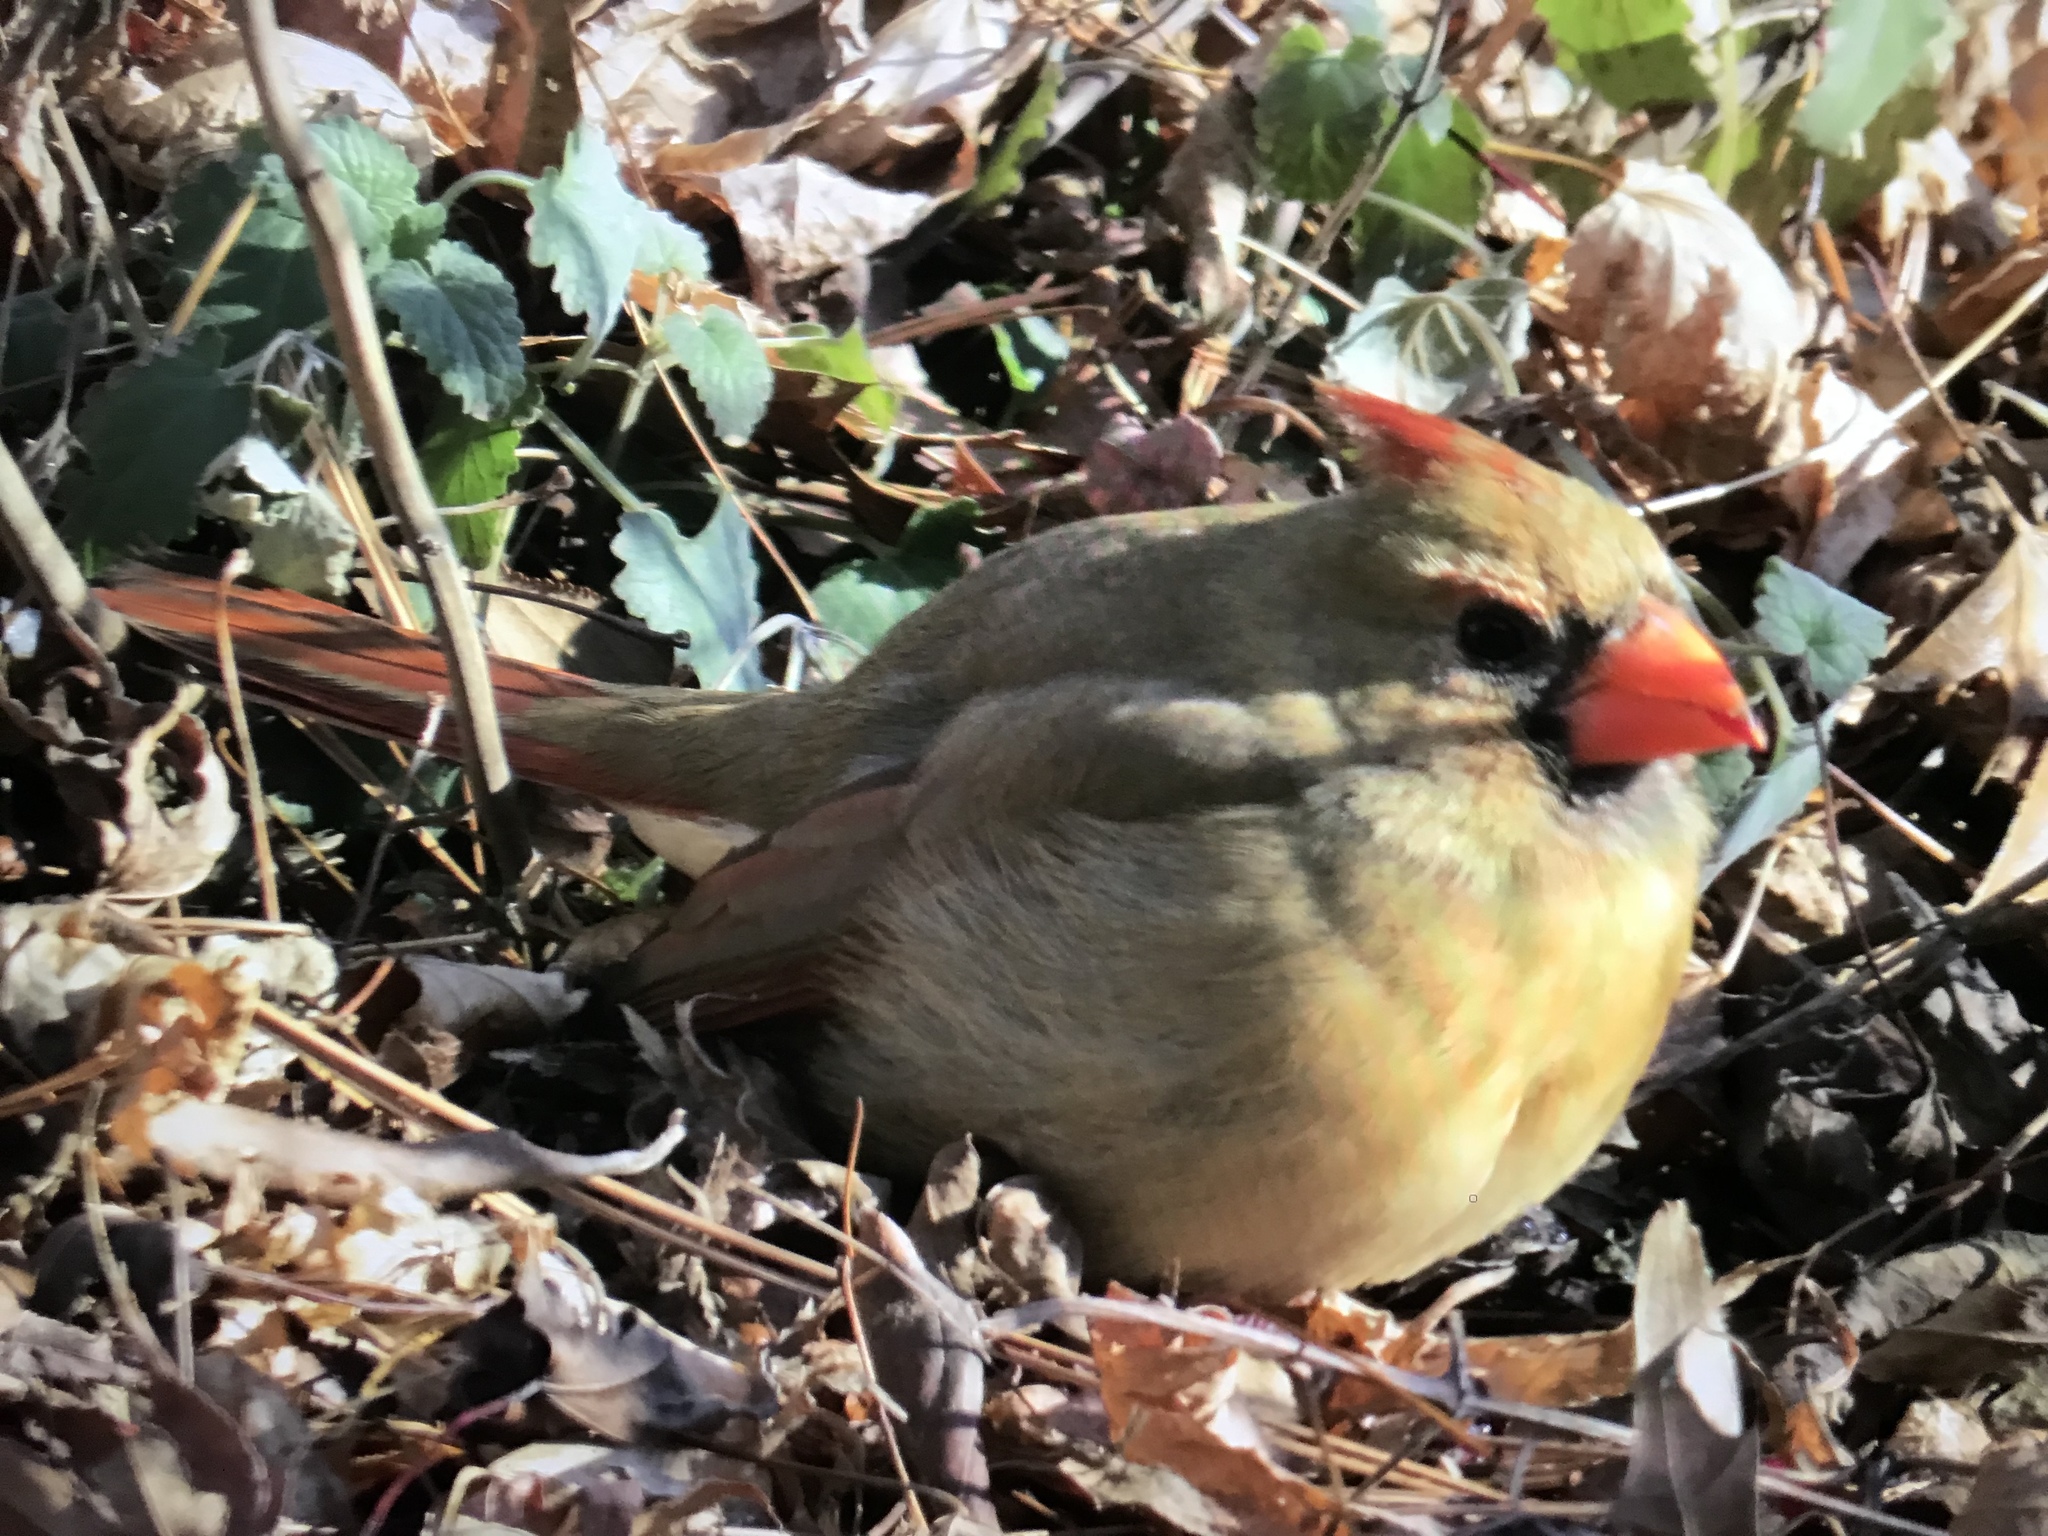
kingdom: Animalia
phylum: Chordata
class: Aves
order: Passeriformes
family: Cardinalidae
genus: Cardinalis
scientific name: Cardinalis cardinalis
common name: Northern cardinal
